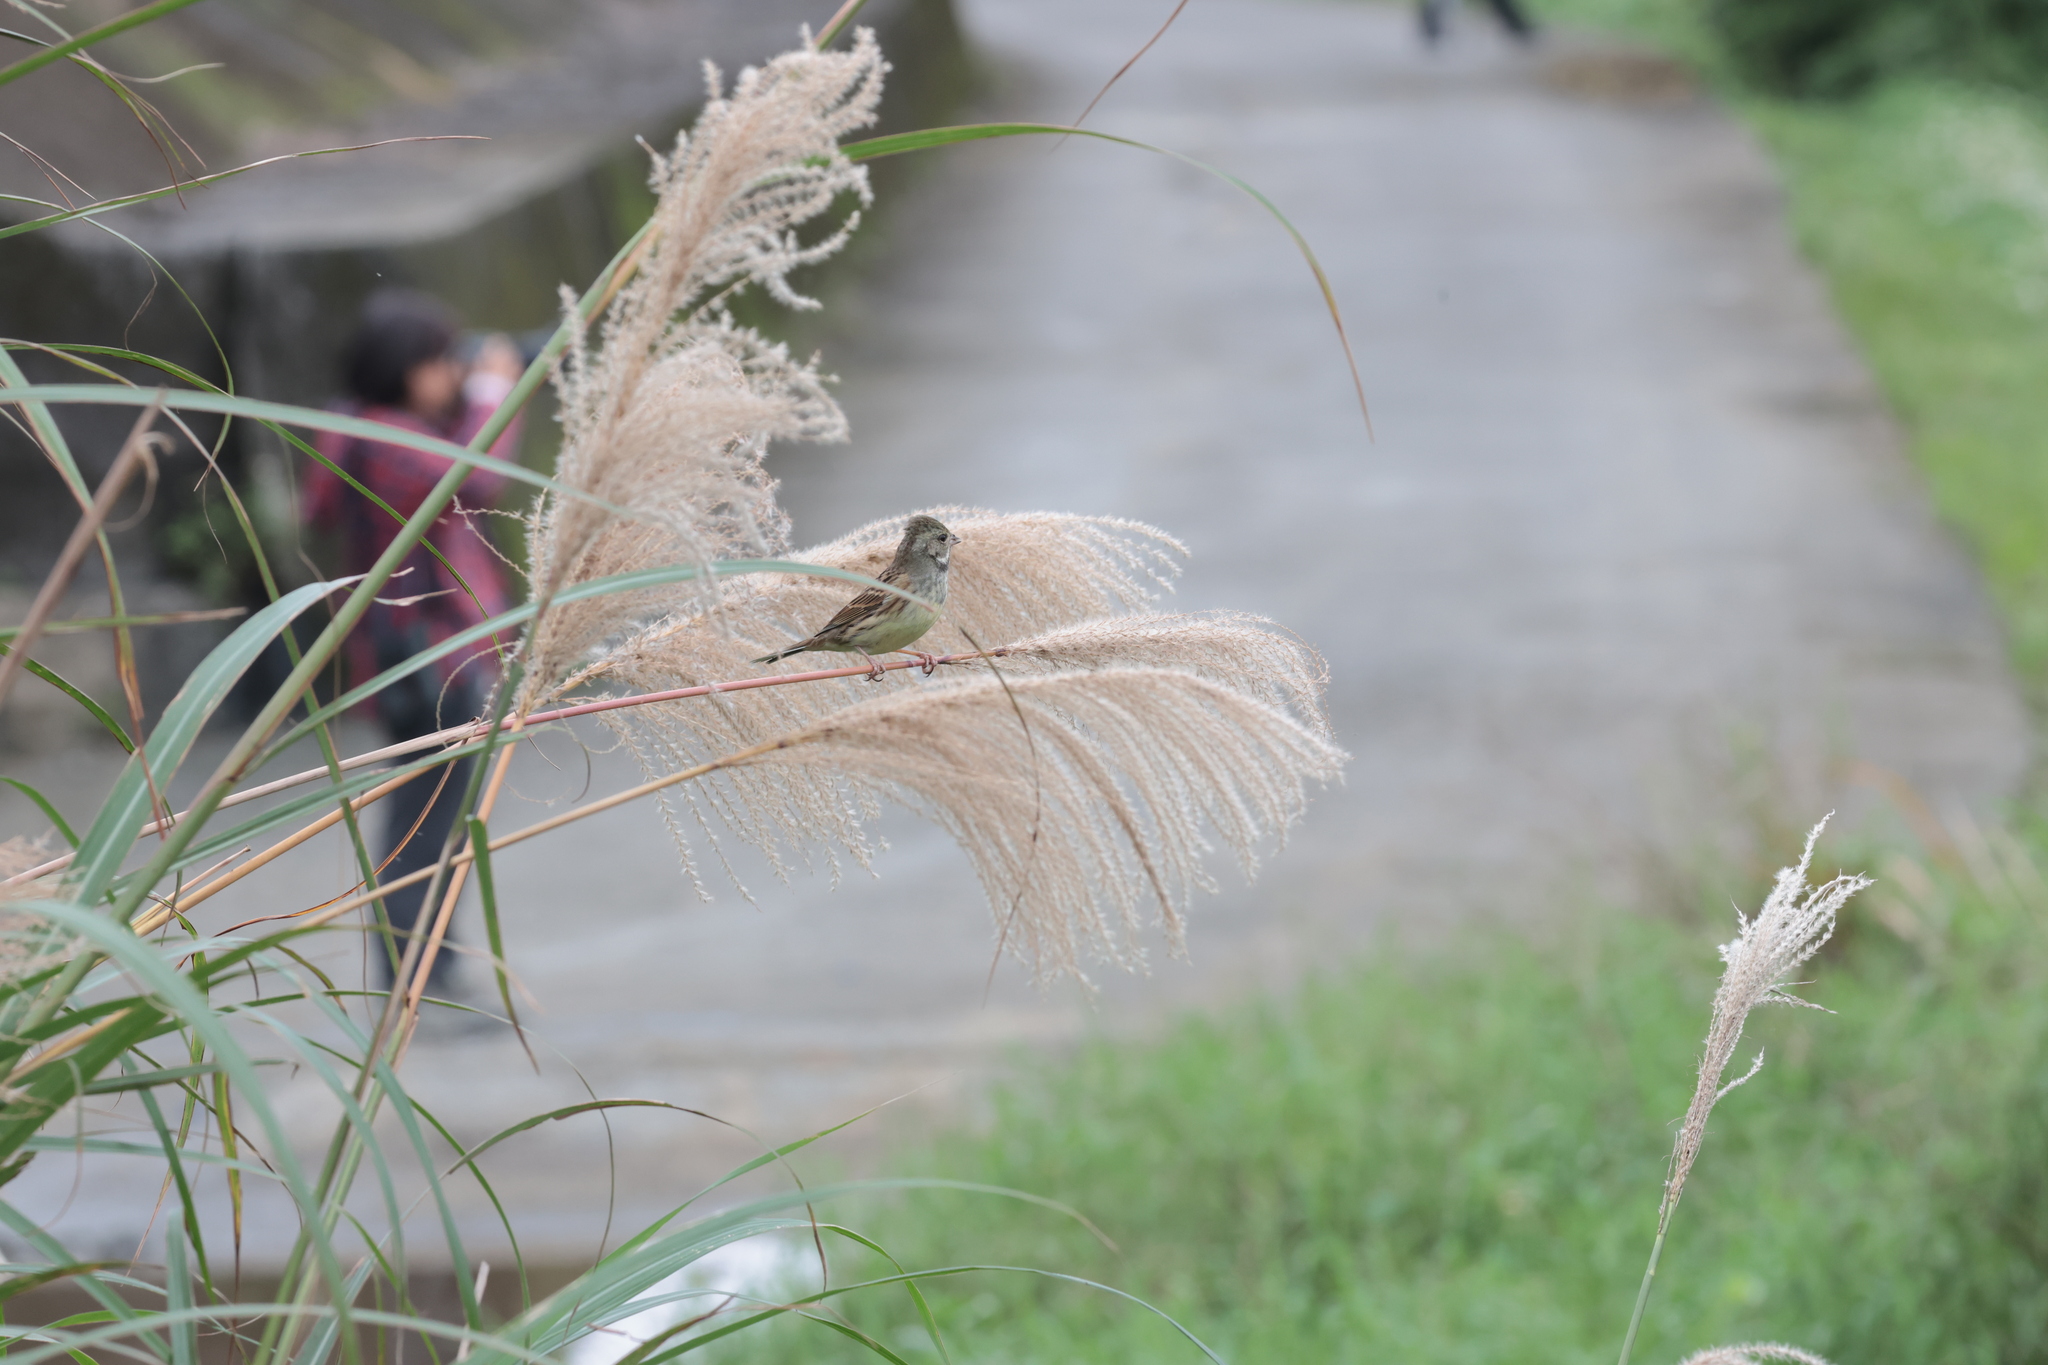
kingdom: Animalia
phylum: Chordata
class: Aves
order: Passeriformes
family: Emberizidae
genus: Emberiza
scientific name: Emberiza spodocephala
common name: Black-faced bunting
